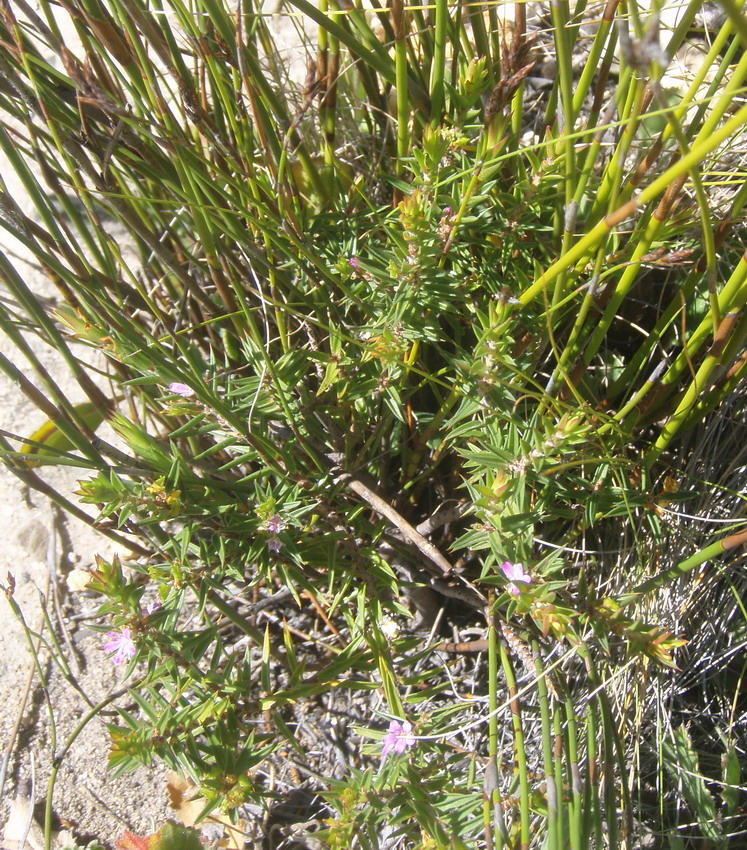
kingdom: Plantae
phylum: Tracheophyta
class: Magnoliopsida
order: Sapindales
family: Rutaceae
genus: Agathosma
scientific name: Agathosma pungens
